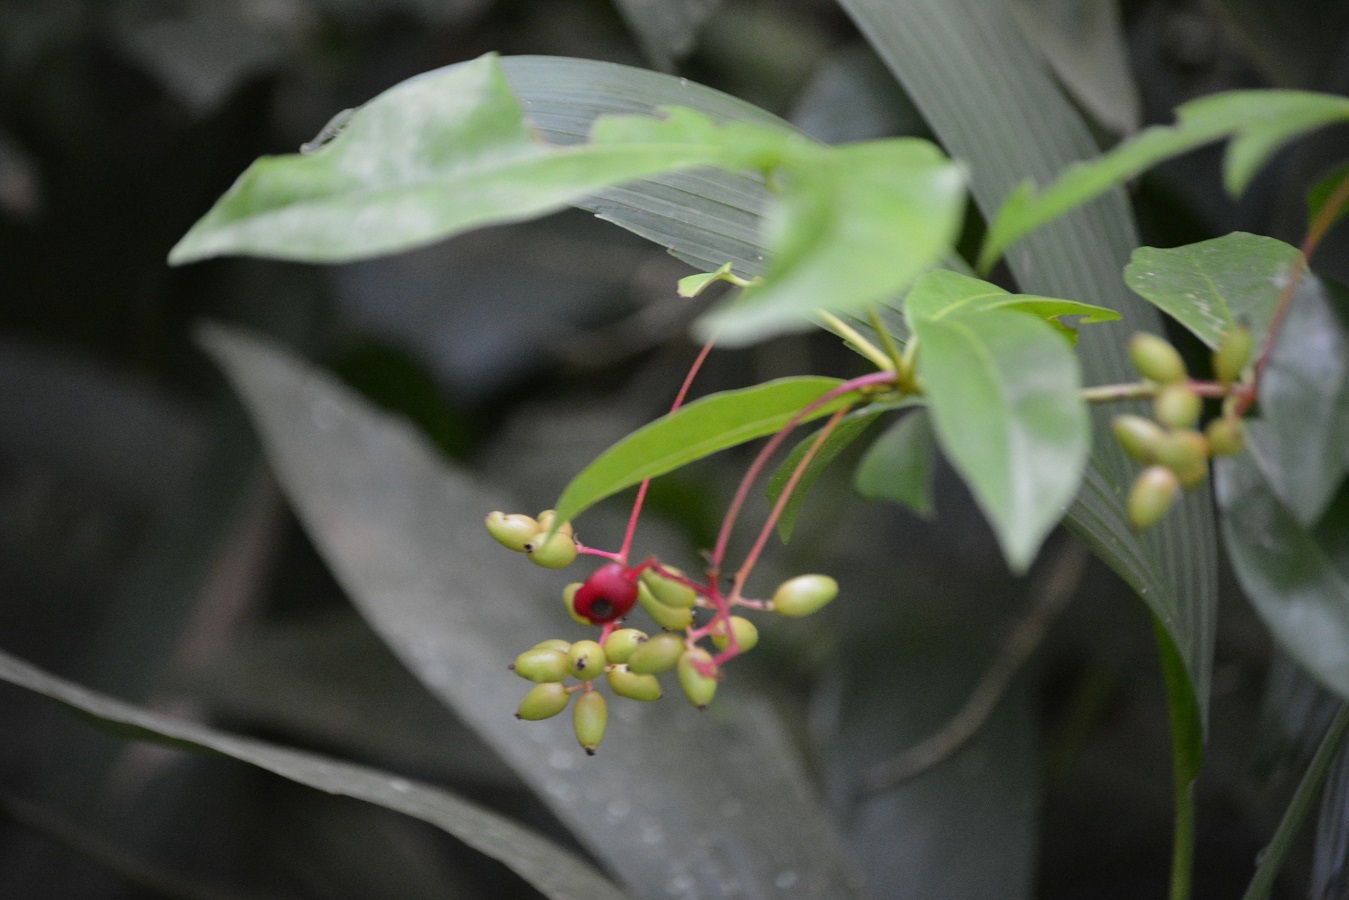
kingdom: Plantae
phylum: Tracheophyta
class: Magnoliopsida
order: Caryophyllales
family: Nyctaginaceae
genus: Neea
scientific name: Neea psychotrioides
